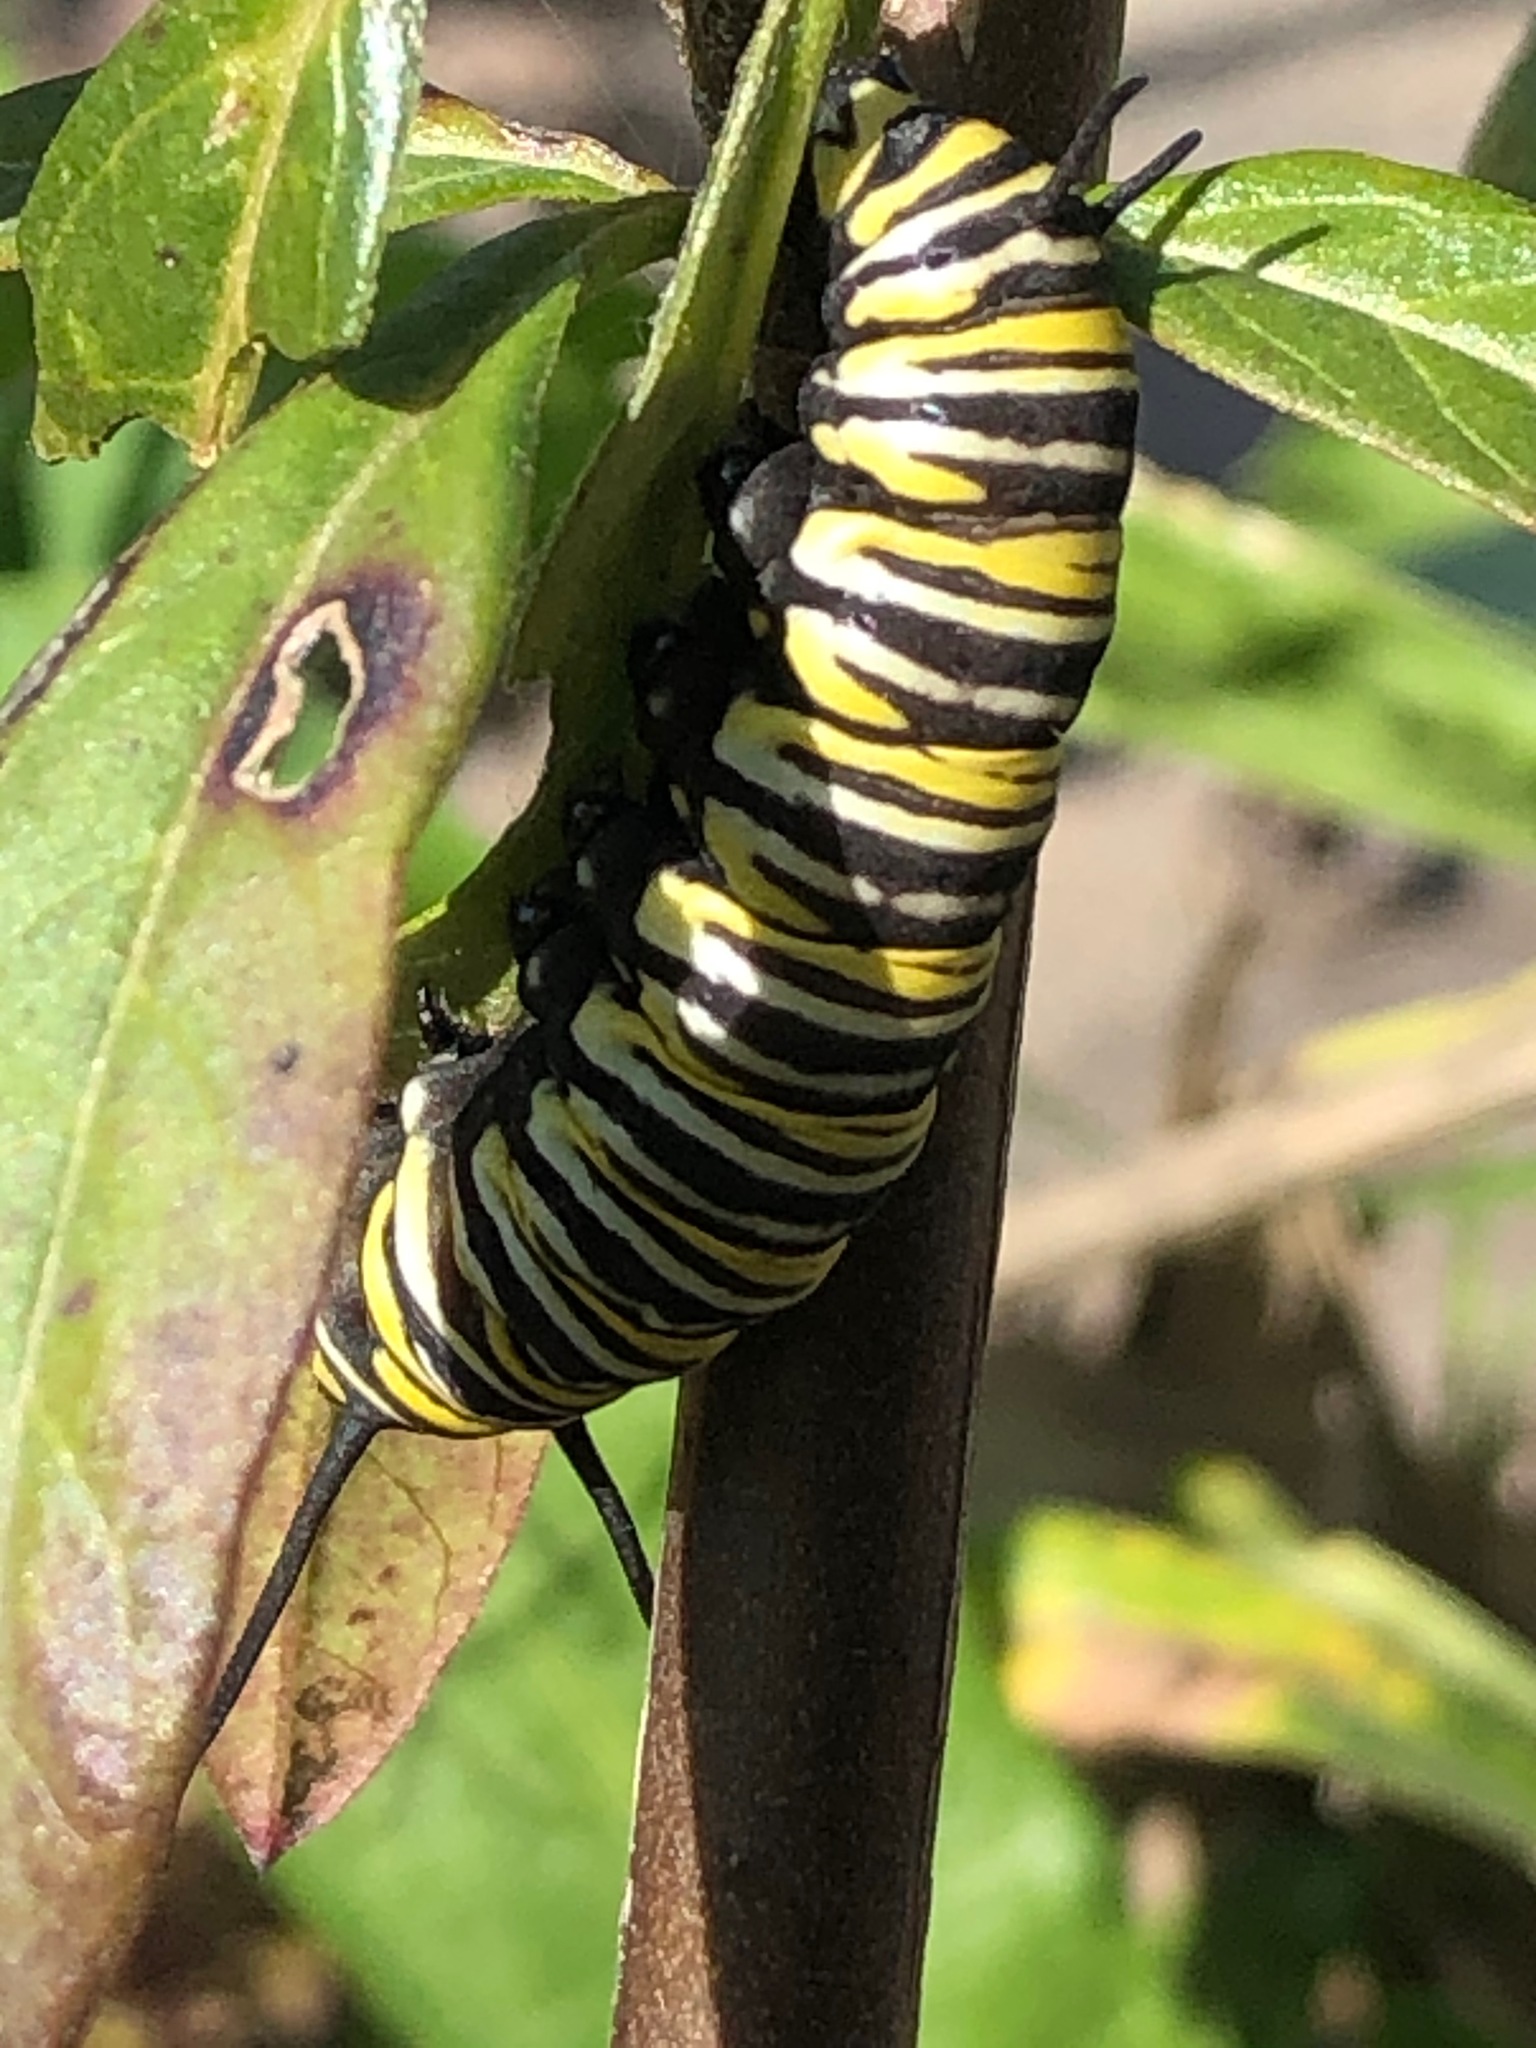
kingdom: Animalia
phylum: Arthropoda
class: Insecta
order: Lepidoptera
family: Nymphalidae
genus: Danaus
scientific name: Danaus plexippus
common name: Monarch
